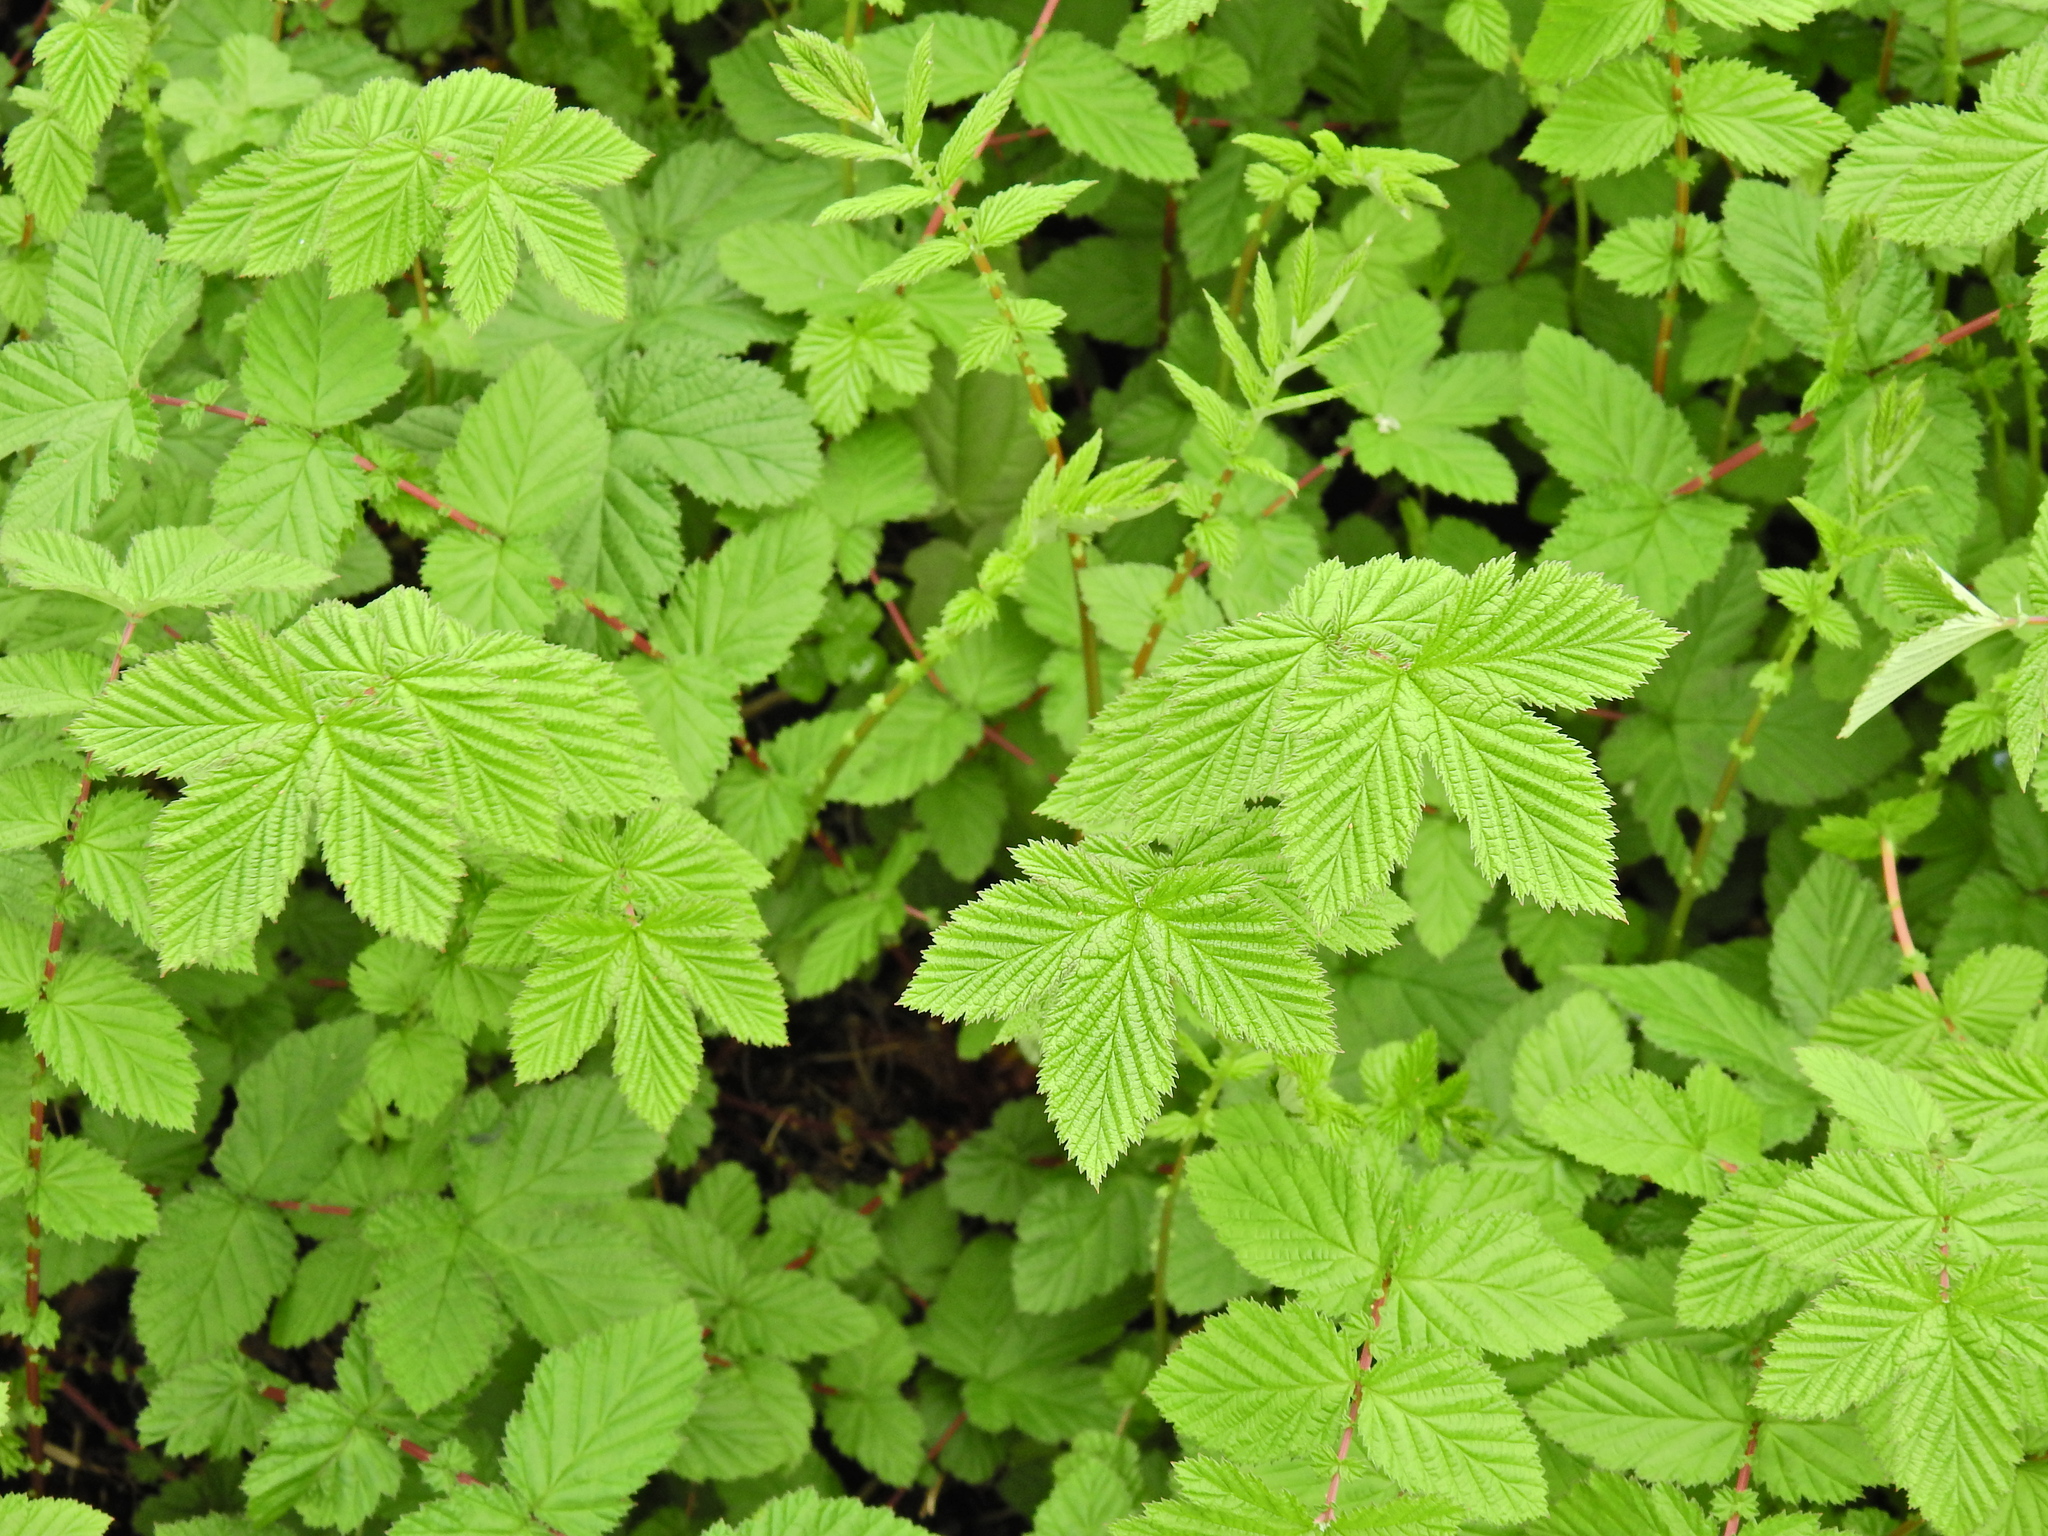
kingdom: Plantae
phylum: Tracheophyta
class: Magnoliopsida
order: Rosales
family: Rosaceae
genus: Filipendula
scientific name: Filipendula ulmaria
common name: Meadowsweet
